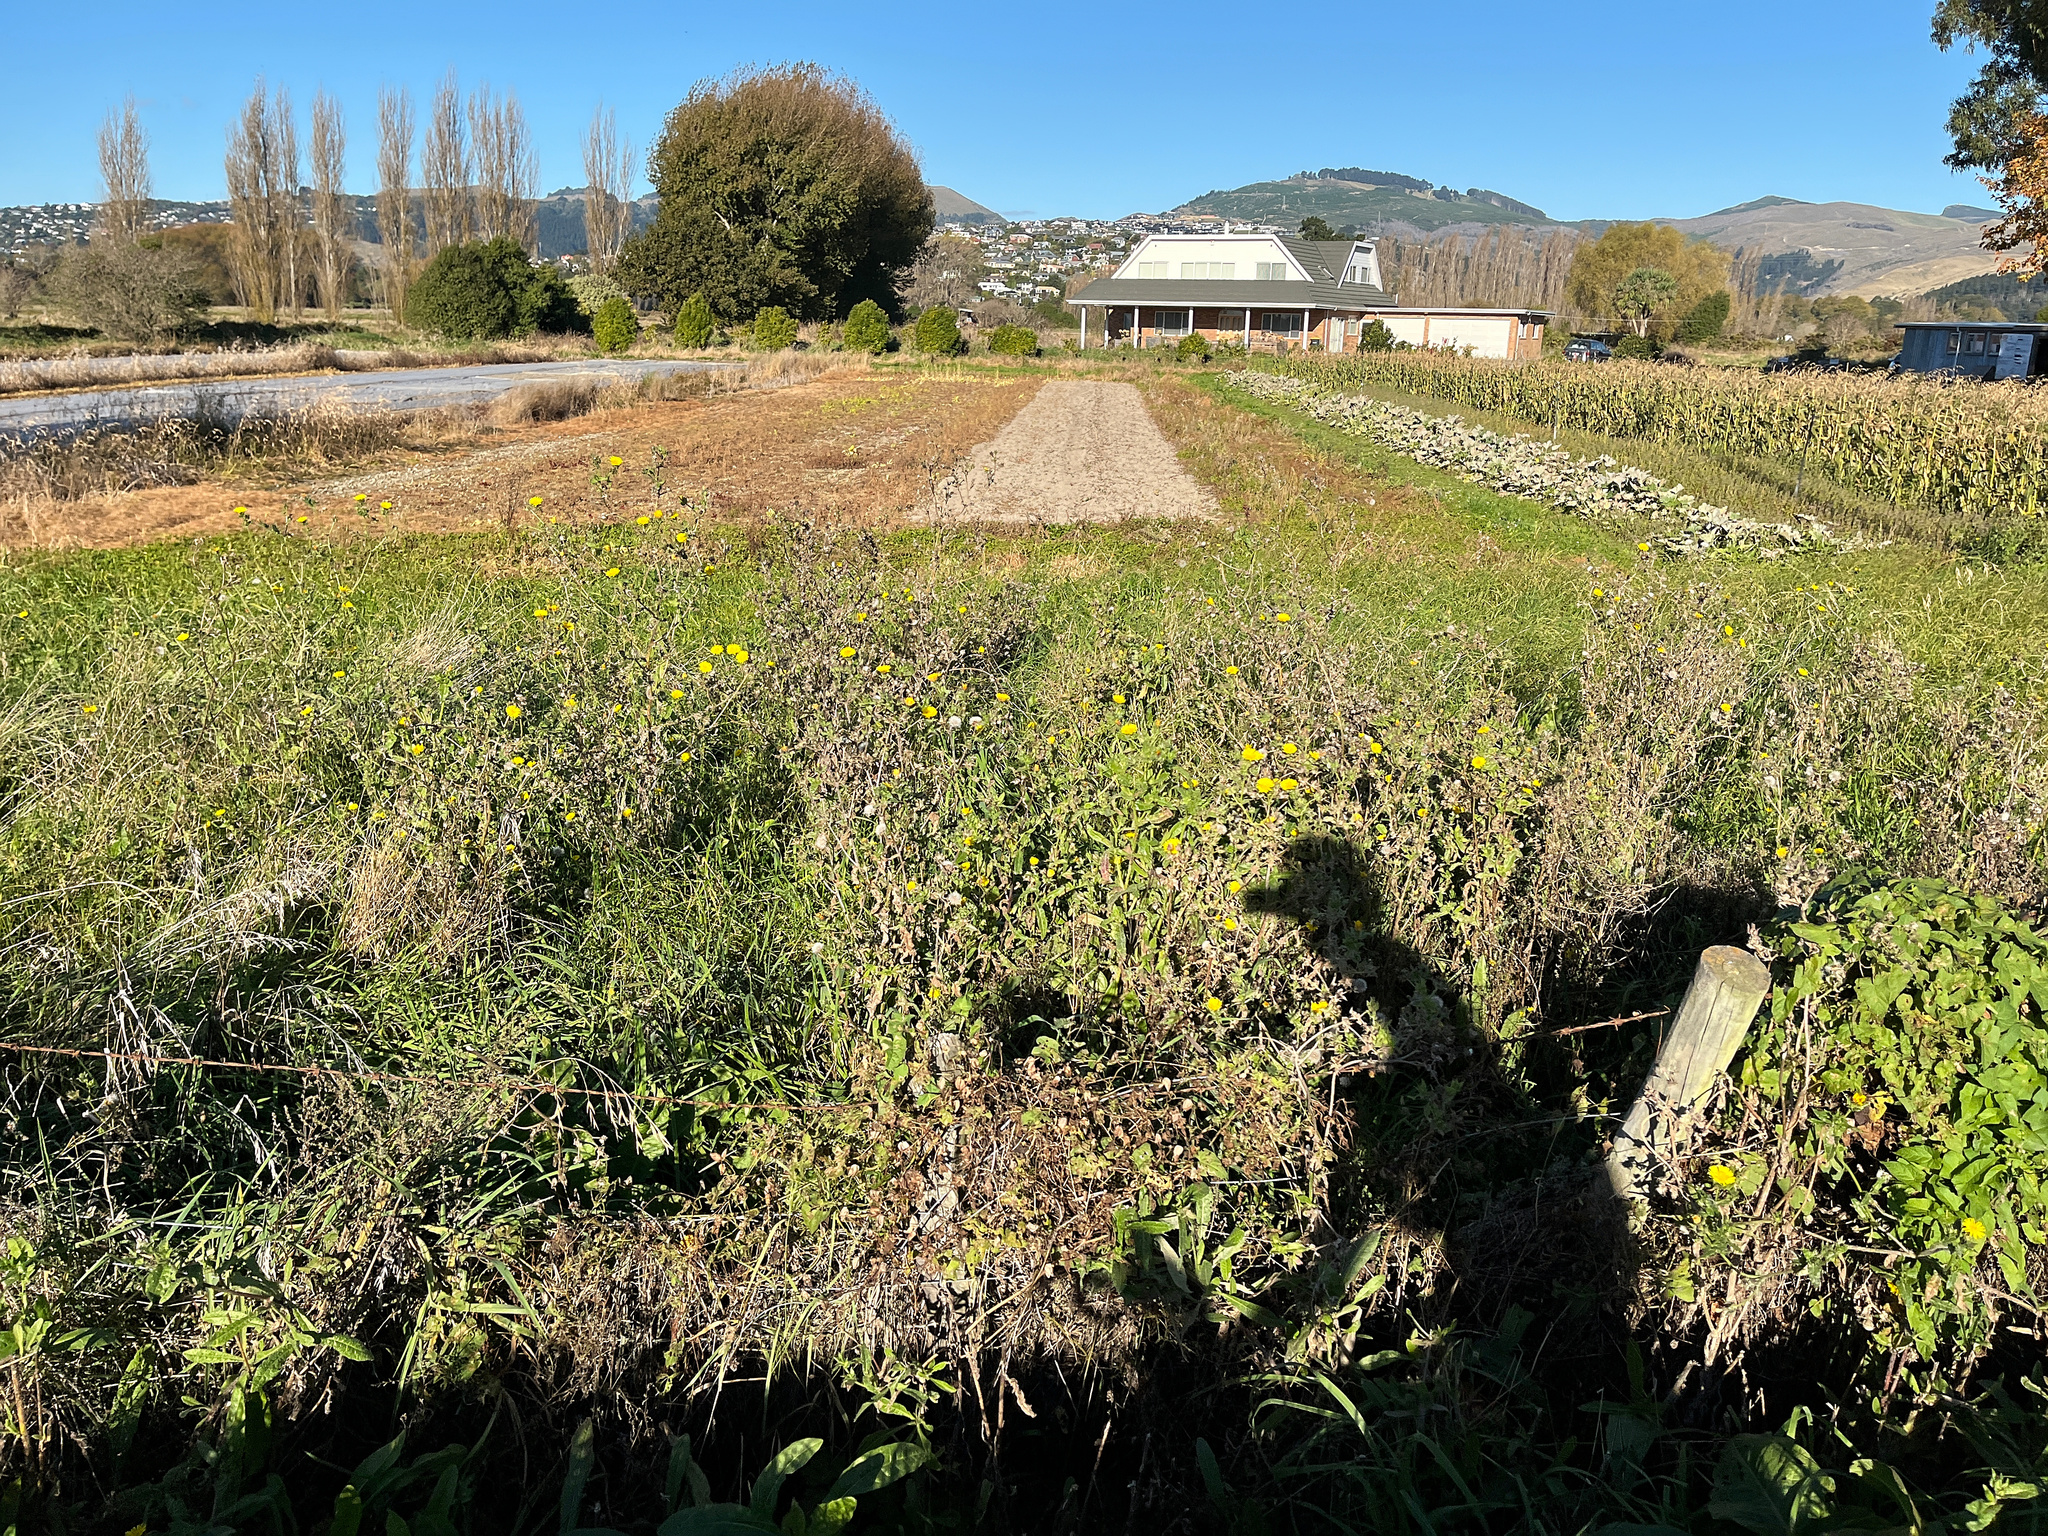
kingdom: Plantae
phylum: Tracheophyta
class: Magnoliopsida
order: Asterales
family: Asteraceae
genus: Helminthotheca
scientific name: Helminthotheca echioides
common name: Ox-tongue
